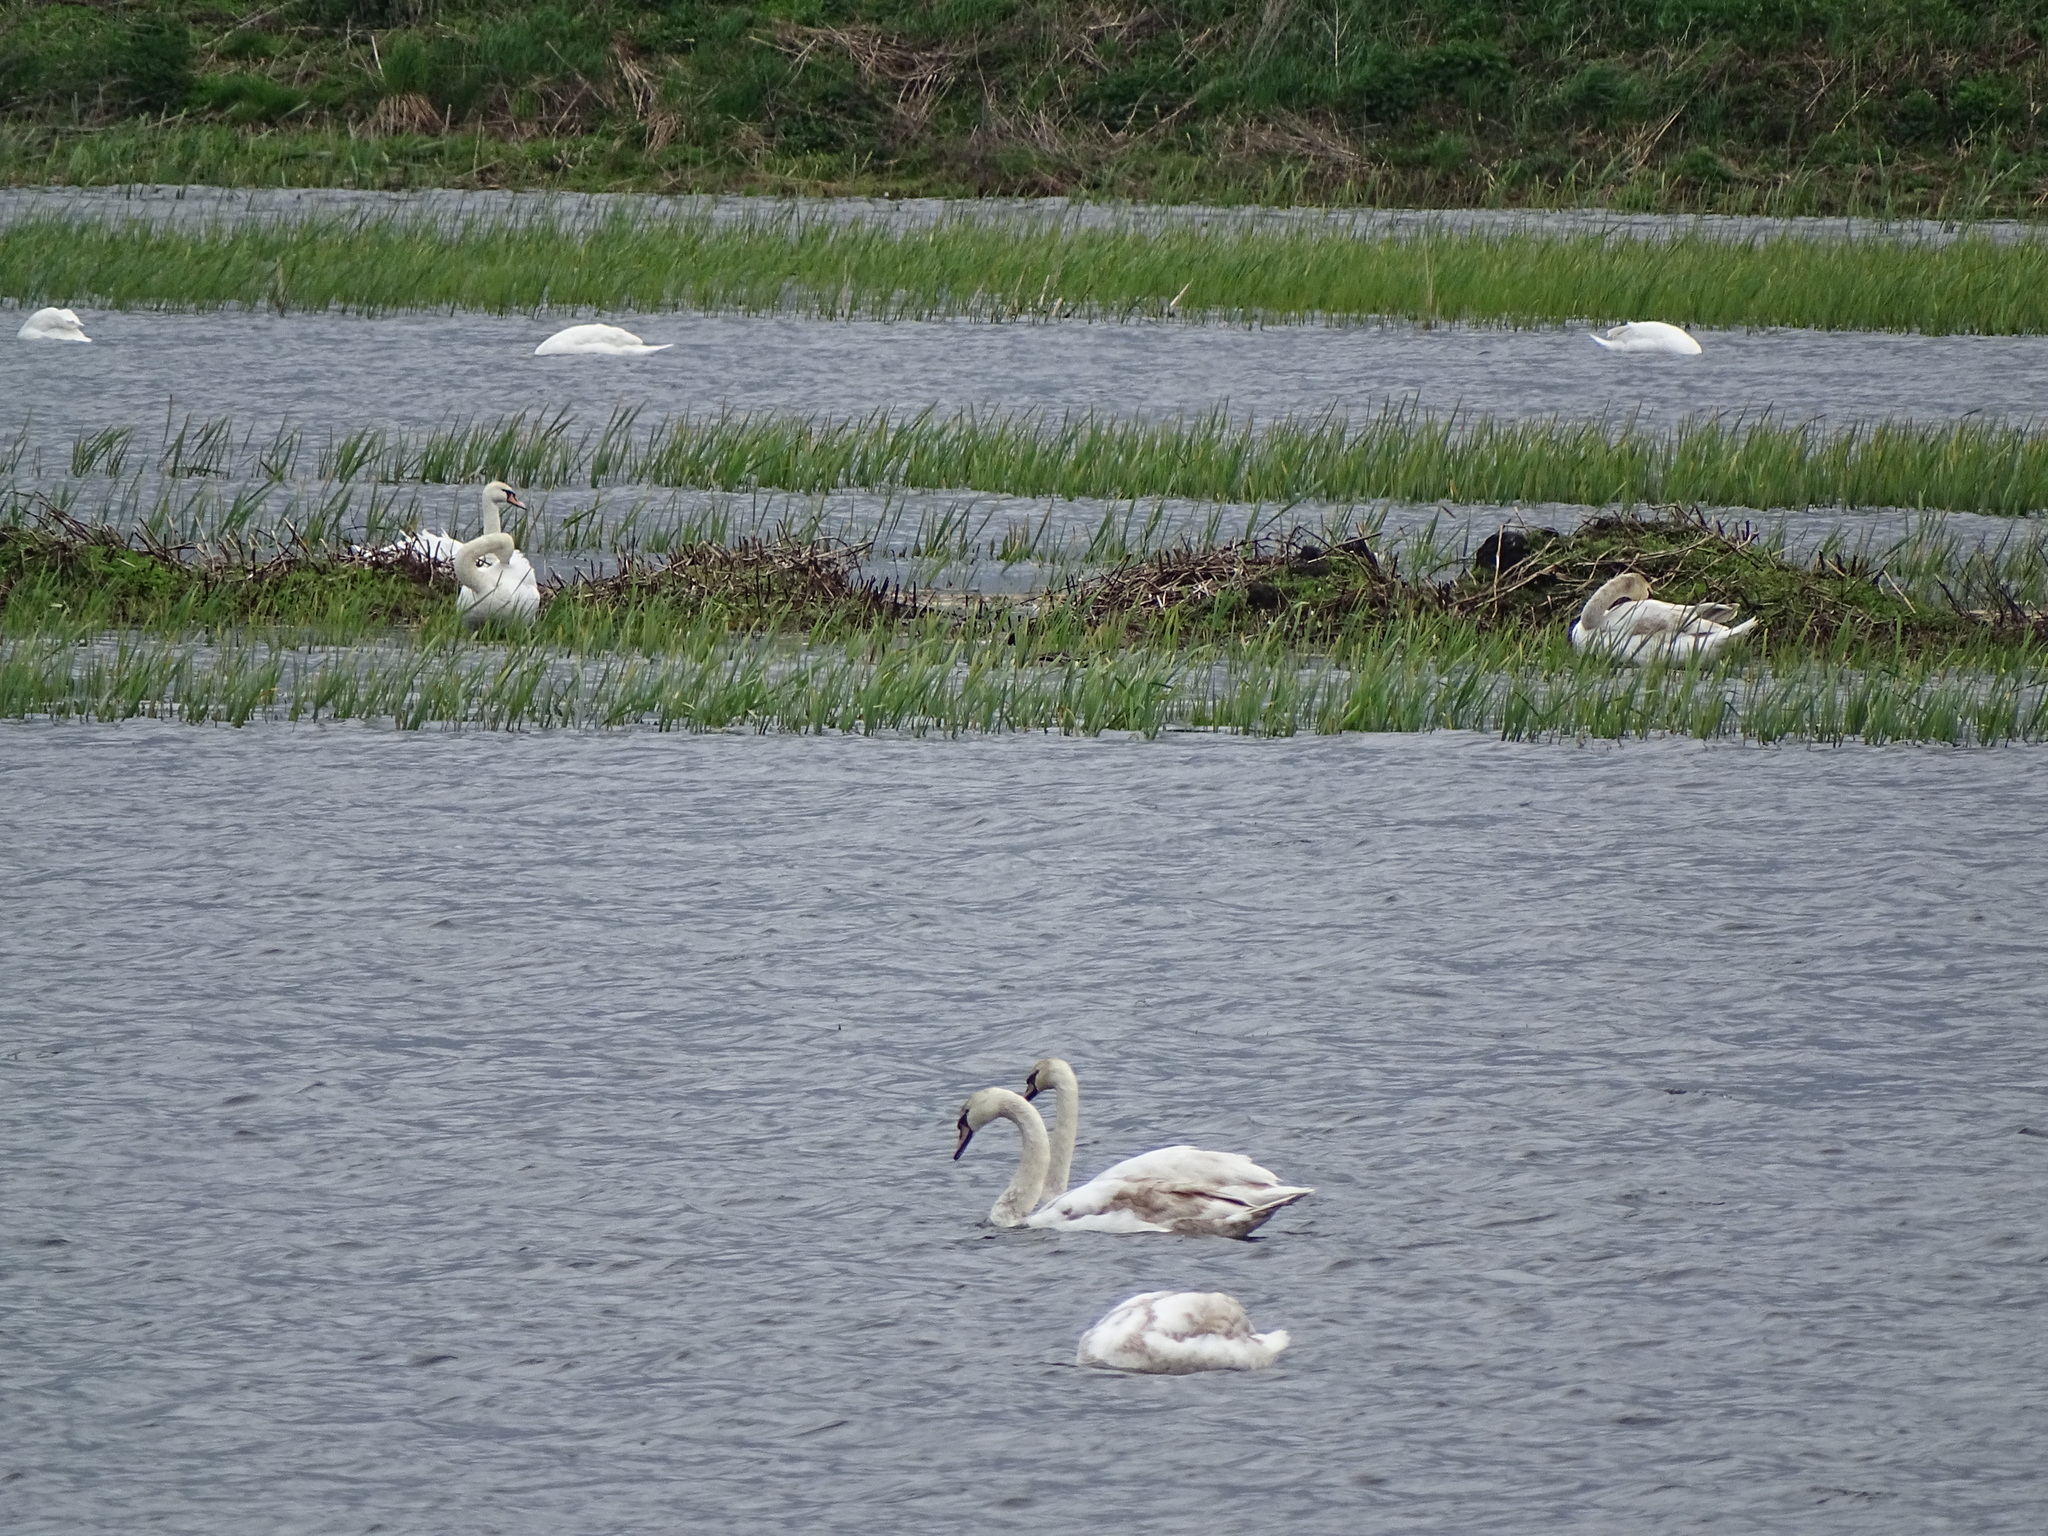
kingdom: Animalia
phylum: Chordata
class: Aves
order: Anseriformes
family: Anatidae
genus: Cygnus
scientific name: Cygnus olor
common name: Mute swan
